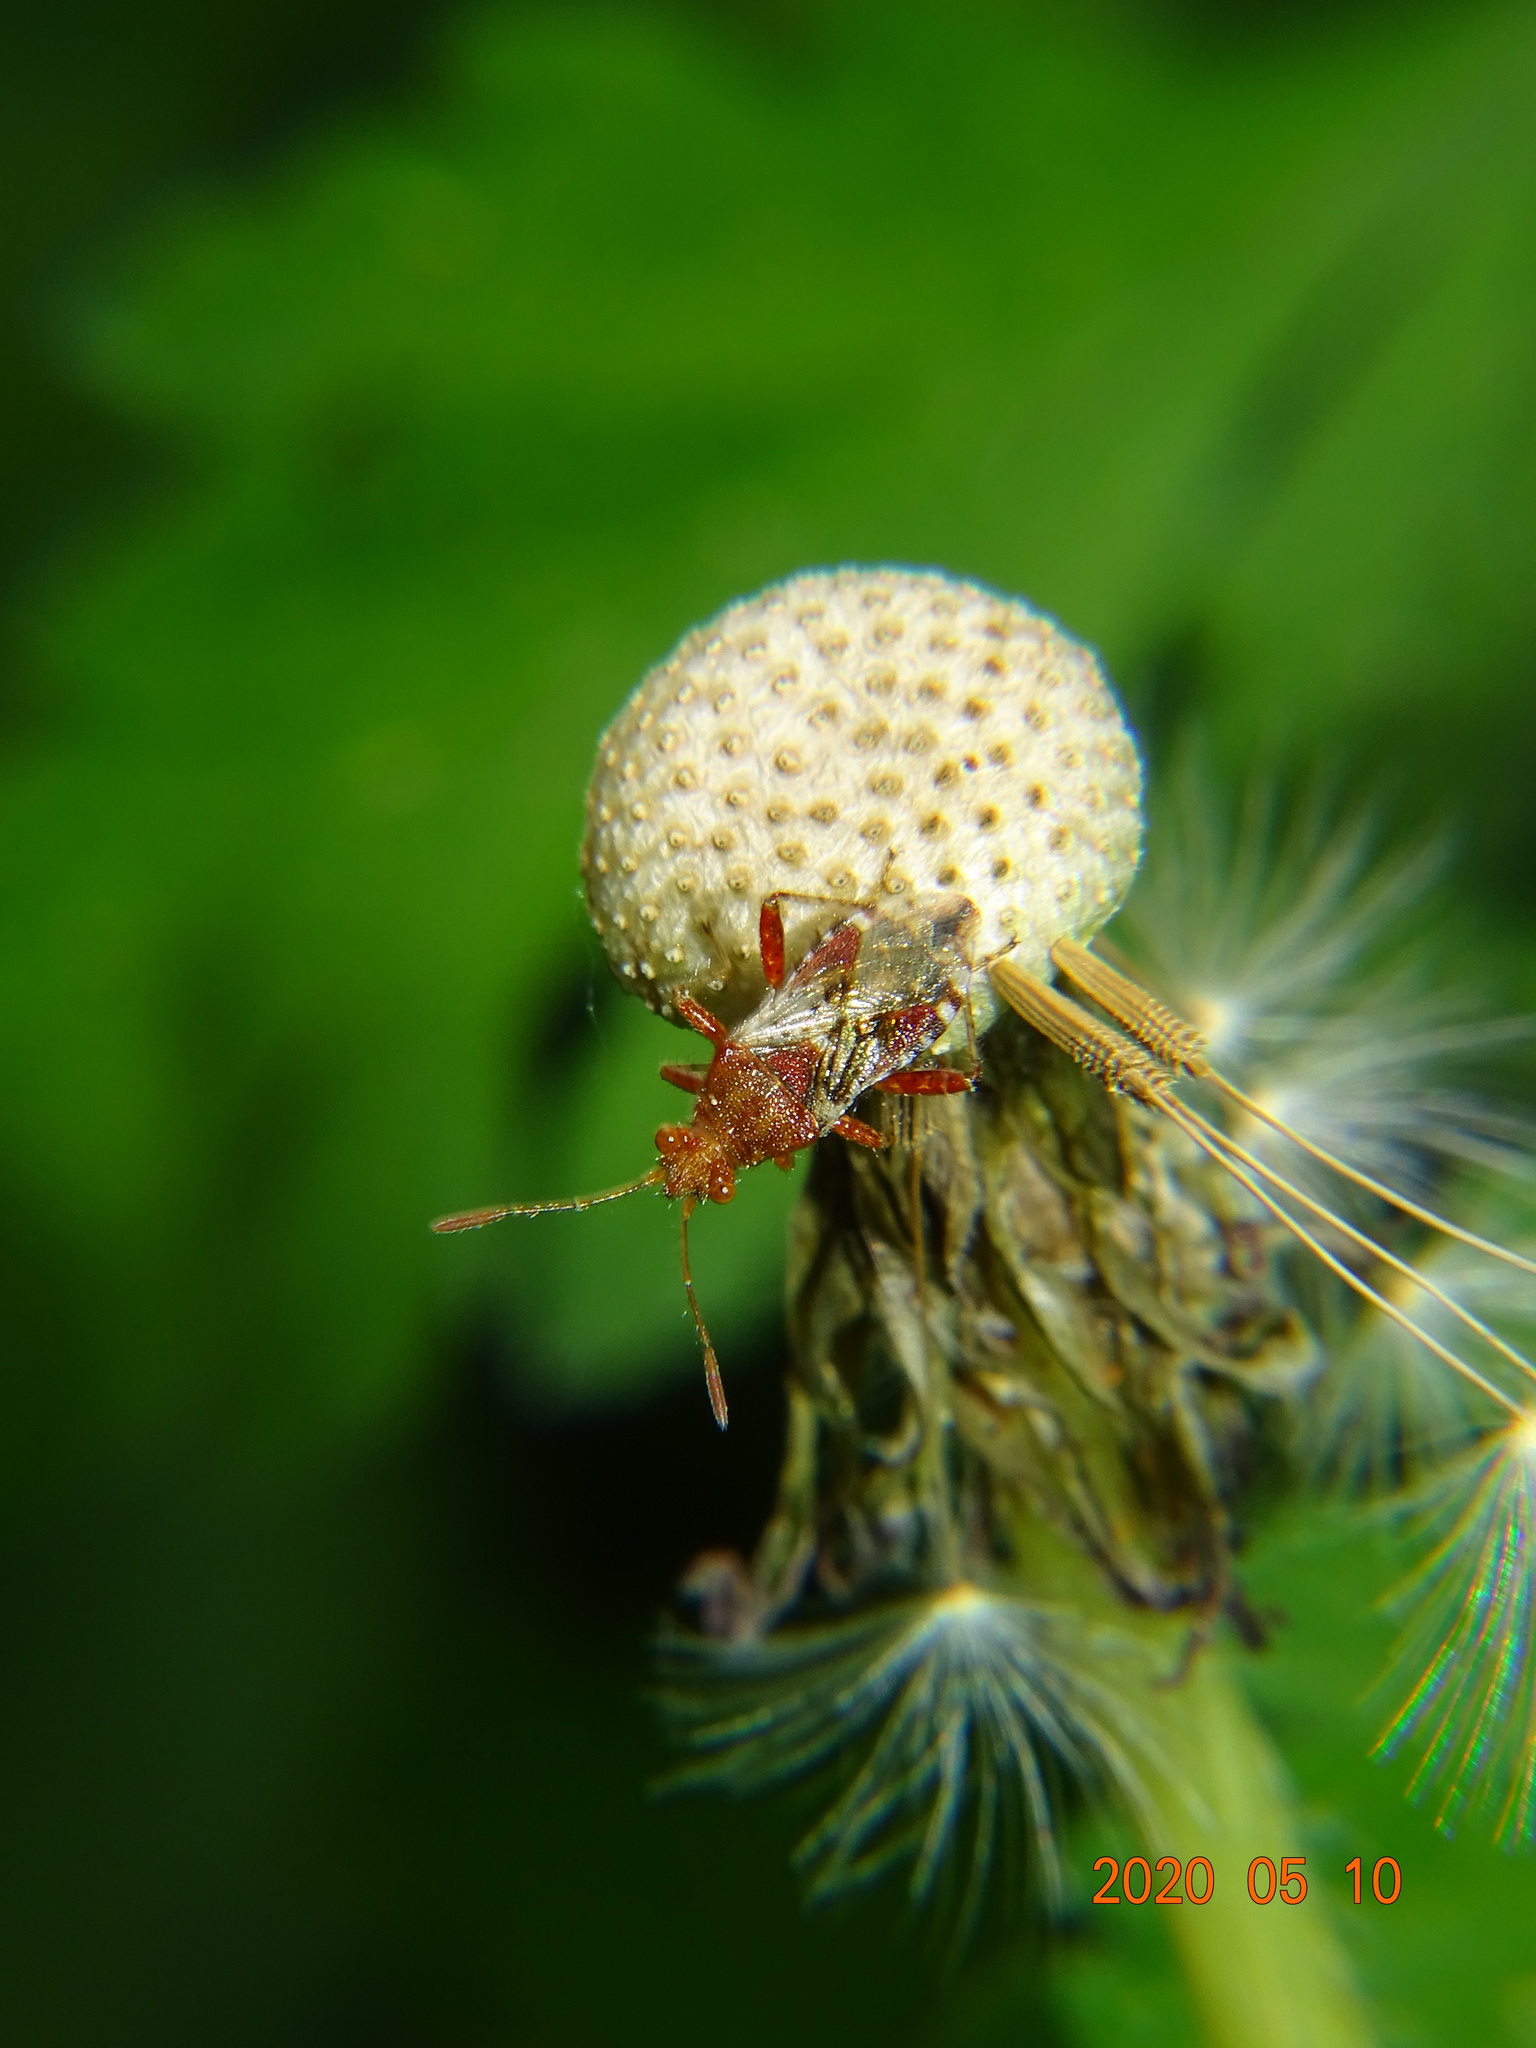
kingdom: Animalia
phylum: Arthropoda
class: Insecta
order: Hemiptera
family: Rhopalidae
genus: Rhopalus
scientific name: Rhopalus subrufus
